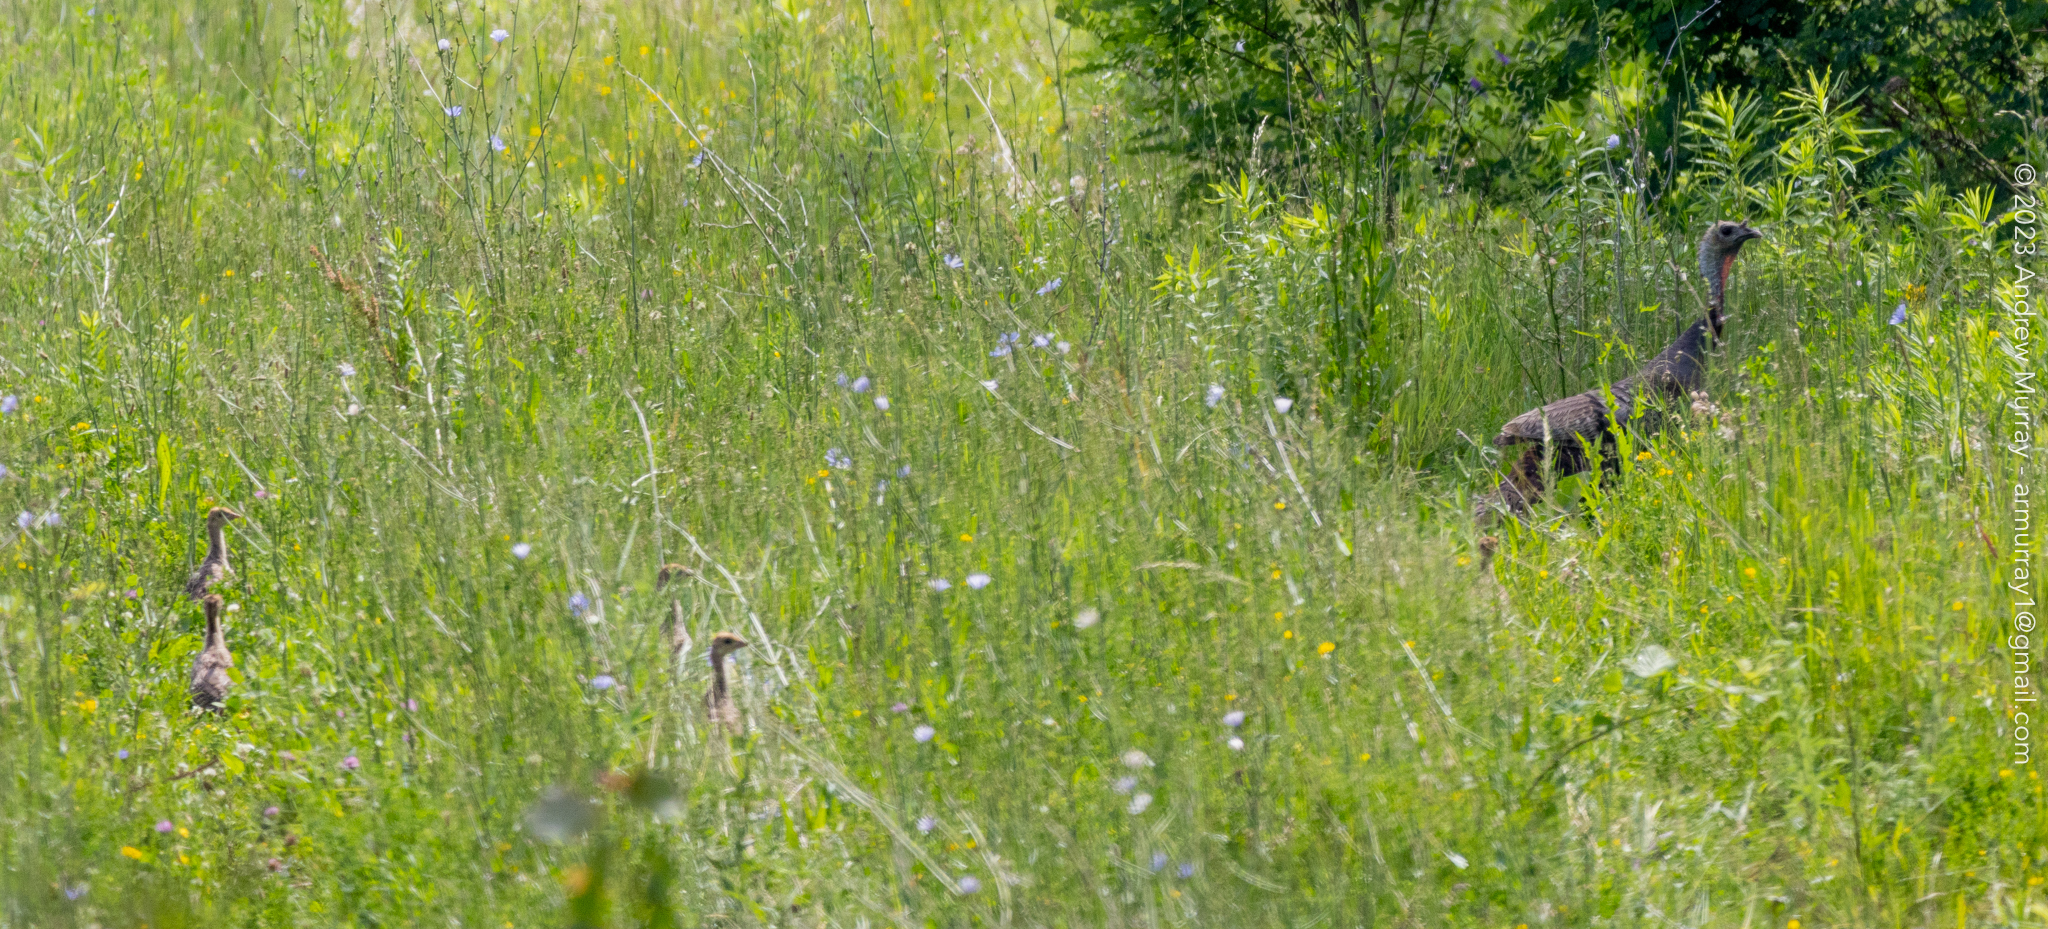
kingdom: Animalia
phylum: Chordata
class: Aves
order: Galliformes
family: Phasianidae
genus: Meleagris
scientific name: Meleagris gallopavo
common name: Wild turkey
